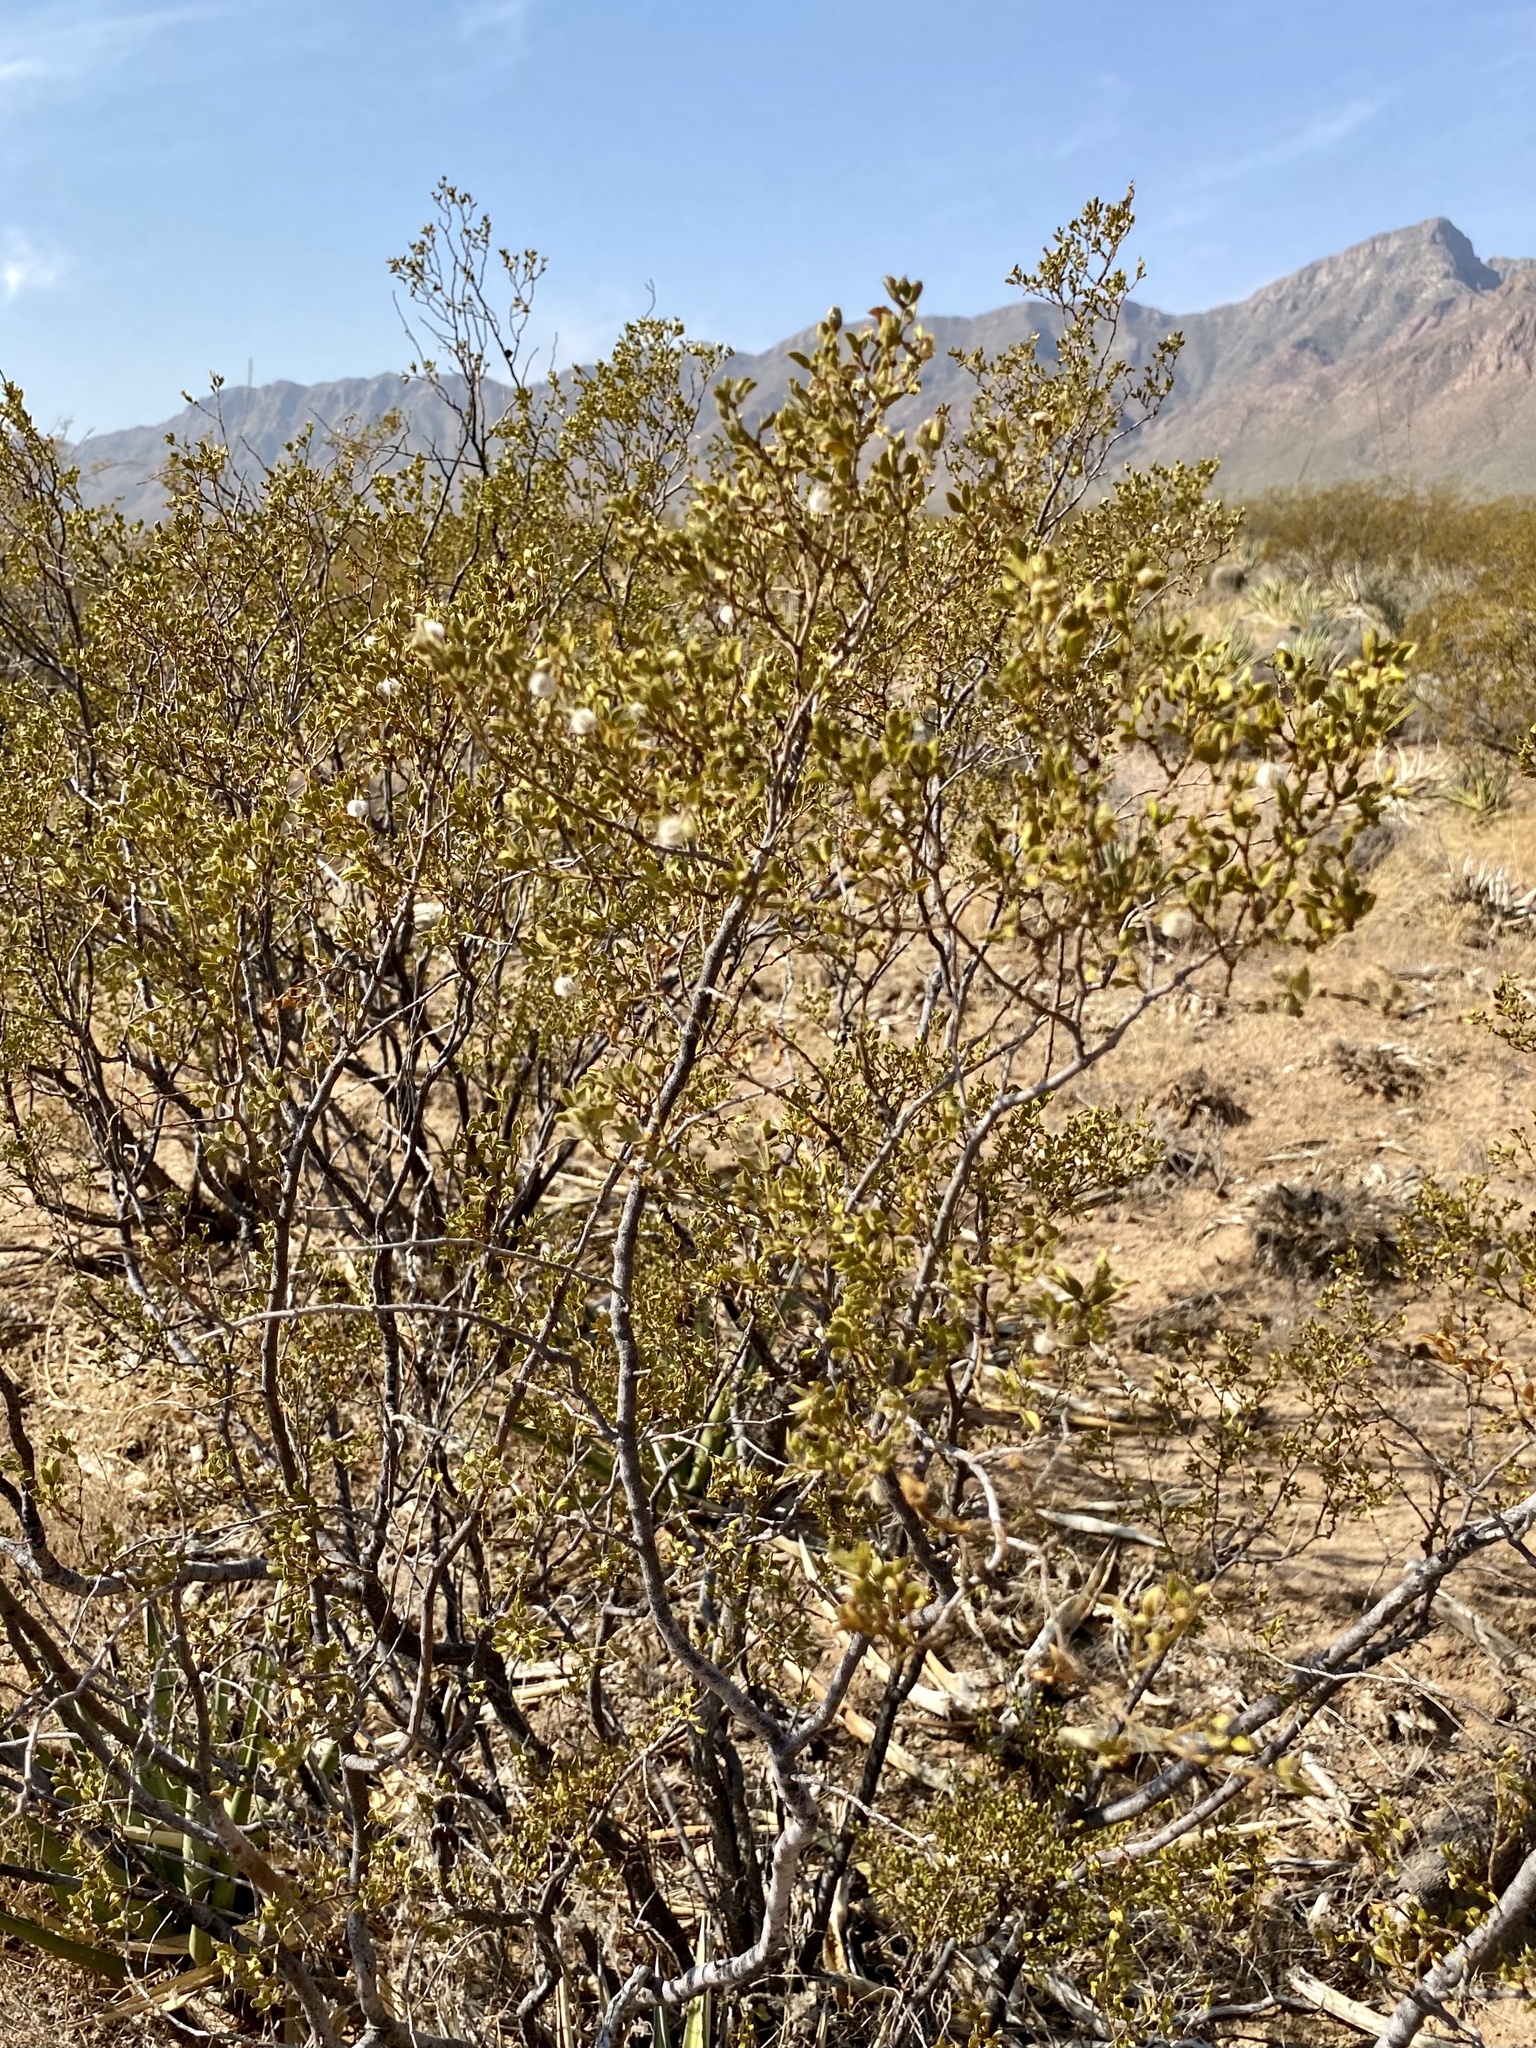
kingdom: Plantae
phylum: Tracheophyta
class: Magnoliopsida
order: Zygophyllales
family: Zygophyllaceae
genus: Larrea
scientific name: Larrea tridentata
